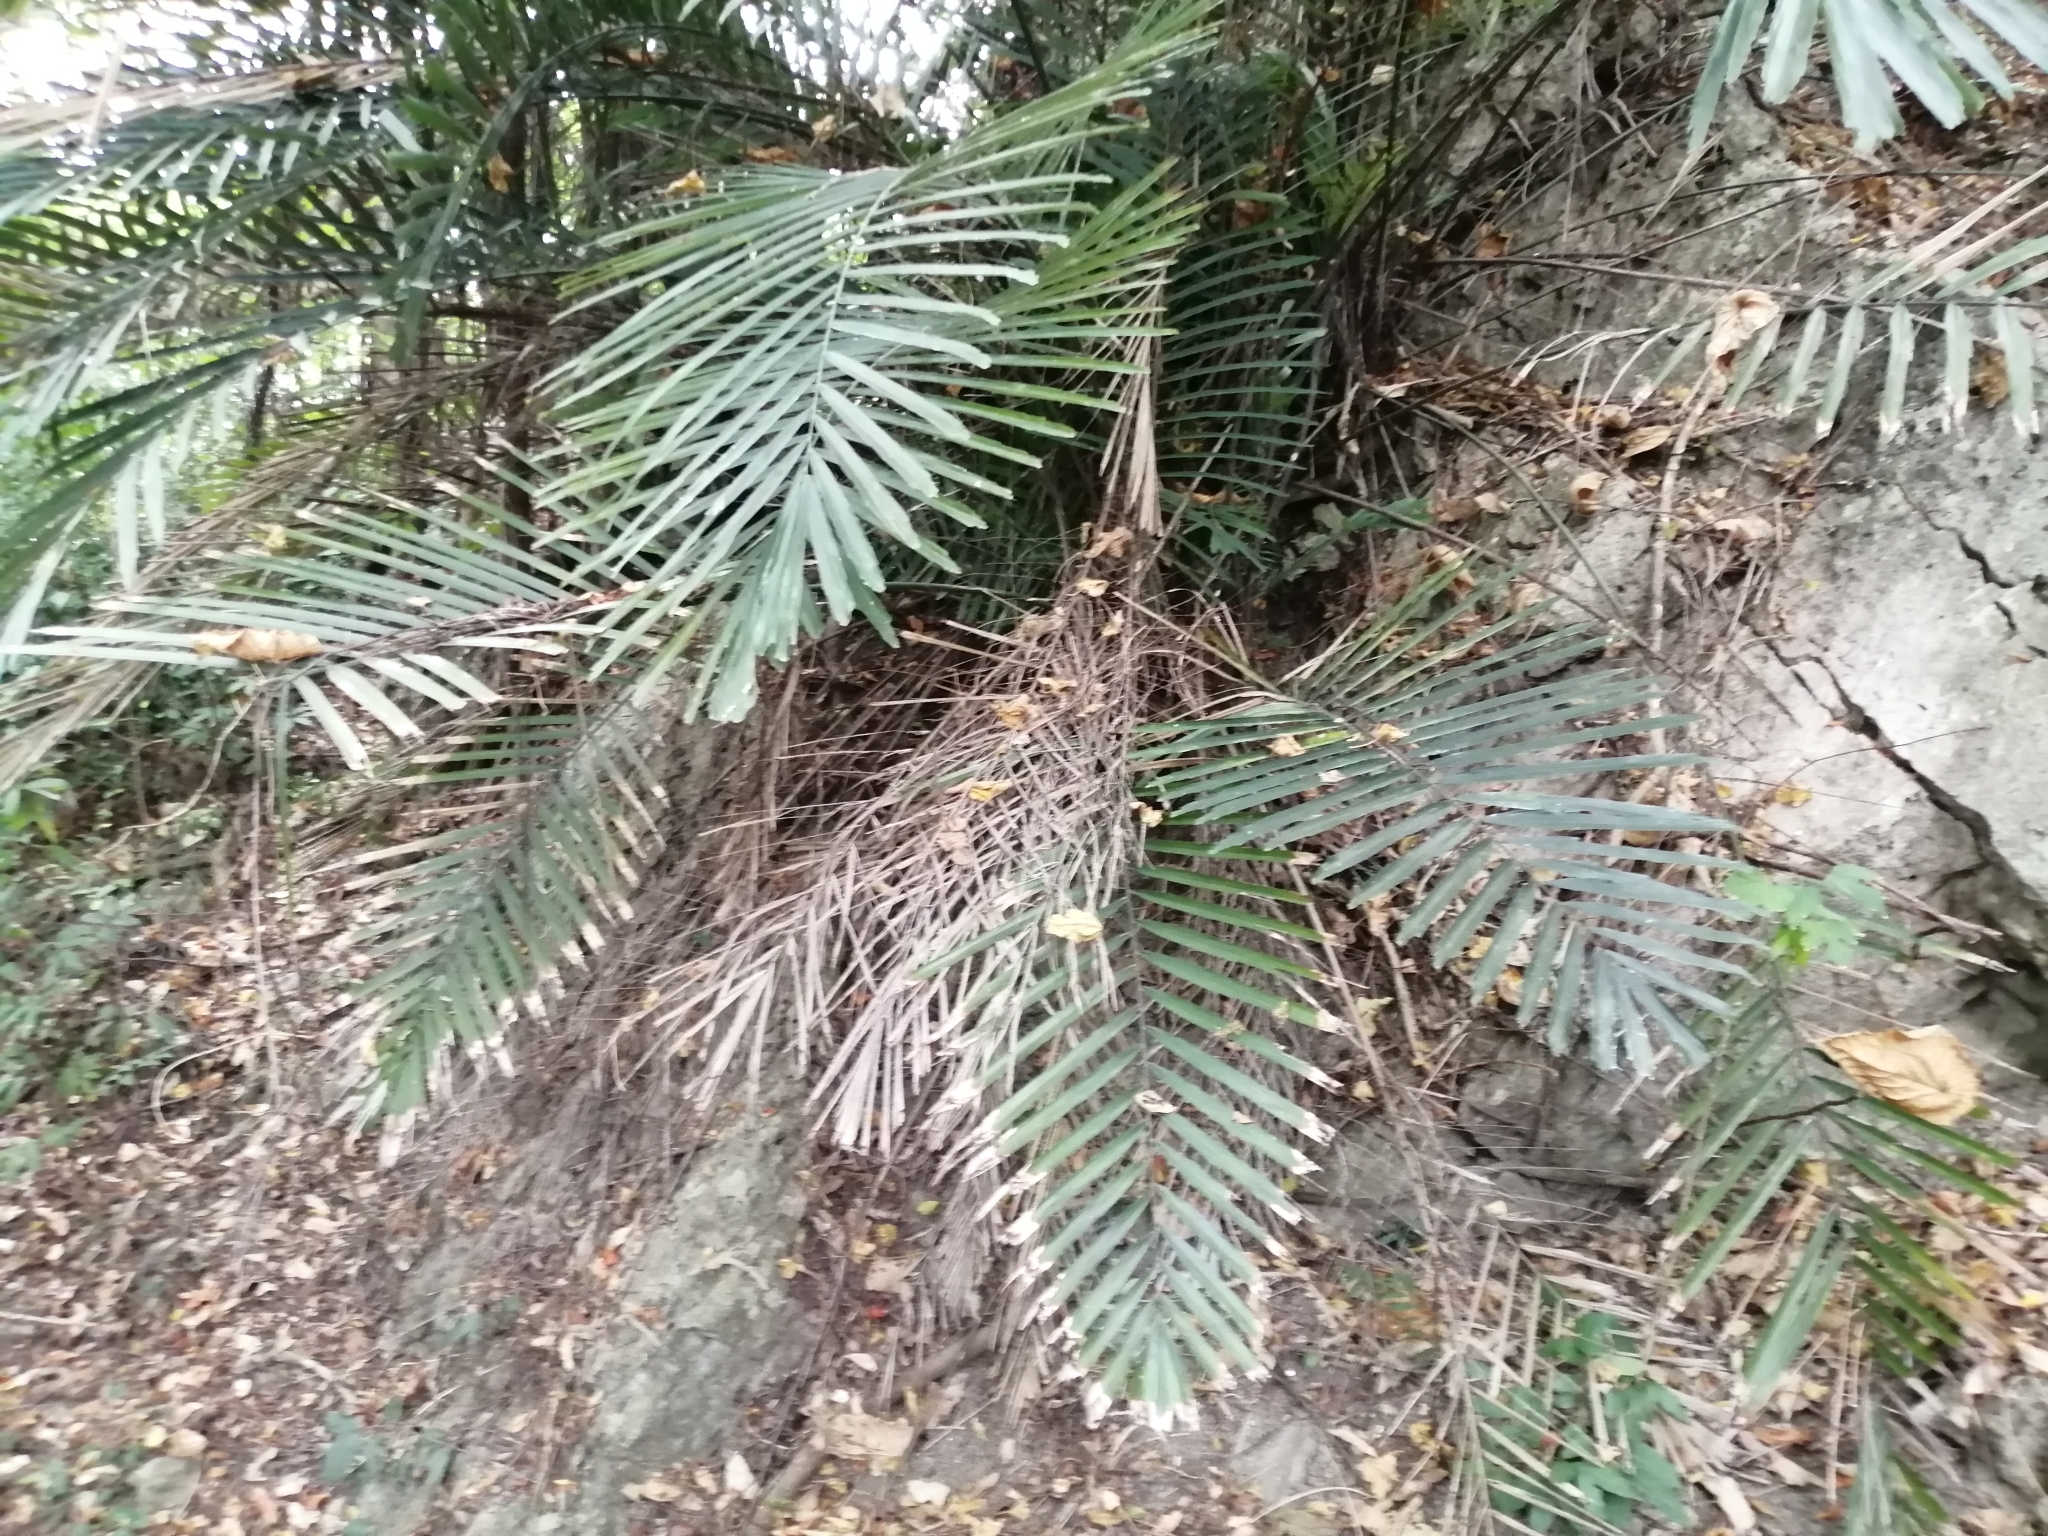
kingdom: Plantae
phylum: Tracheophyta
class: Liliopsida
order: Arecales
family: Arecaceae
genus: Arenga
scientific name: Arenga engleri
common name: Formosan sugar palm
